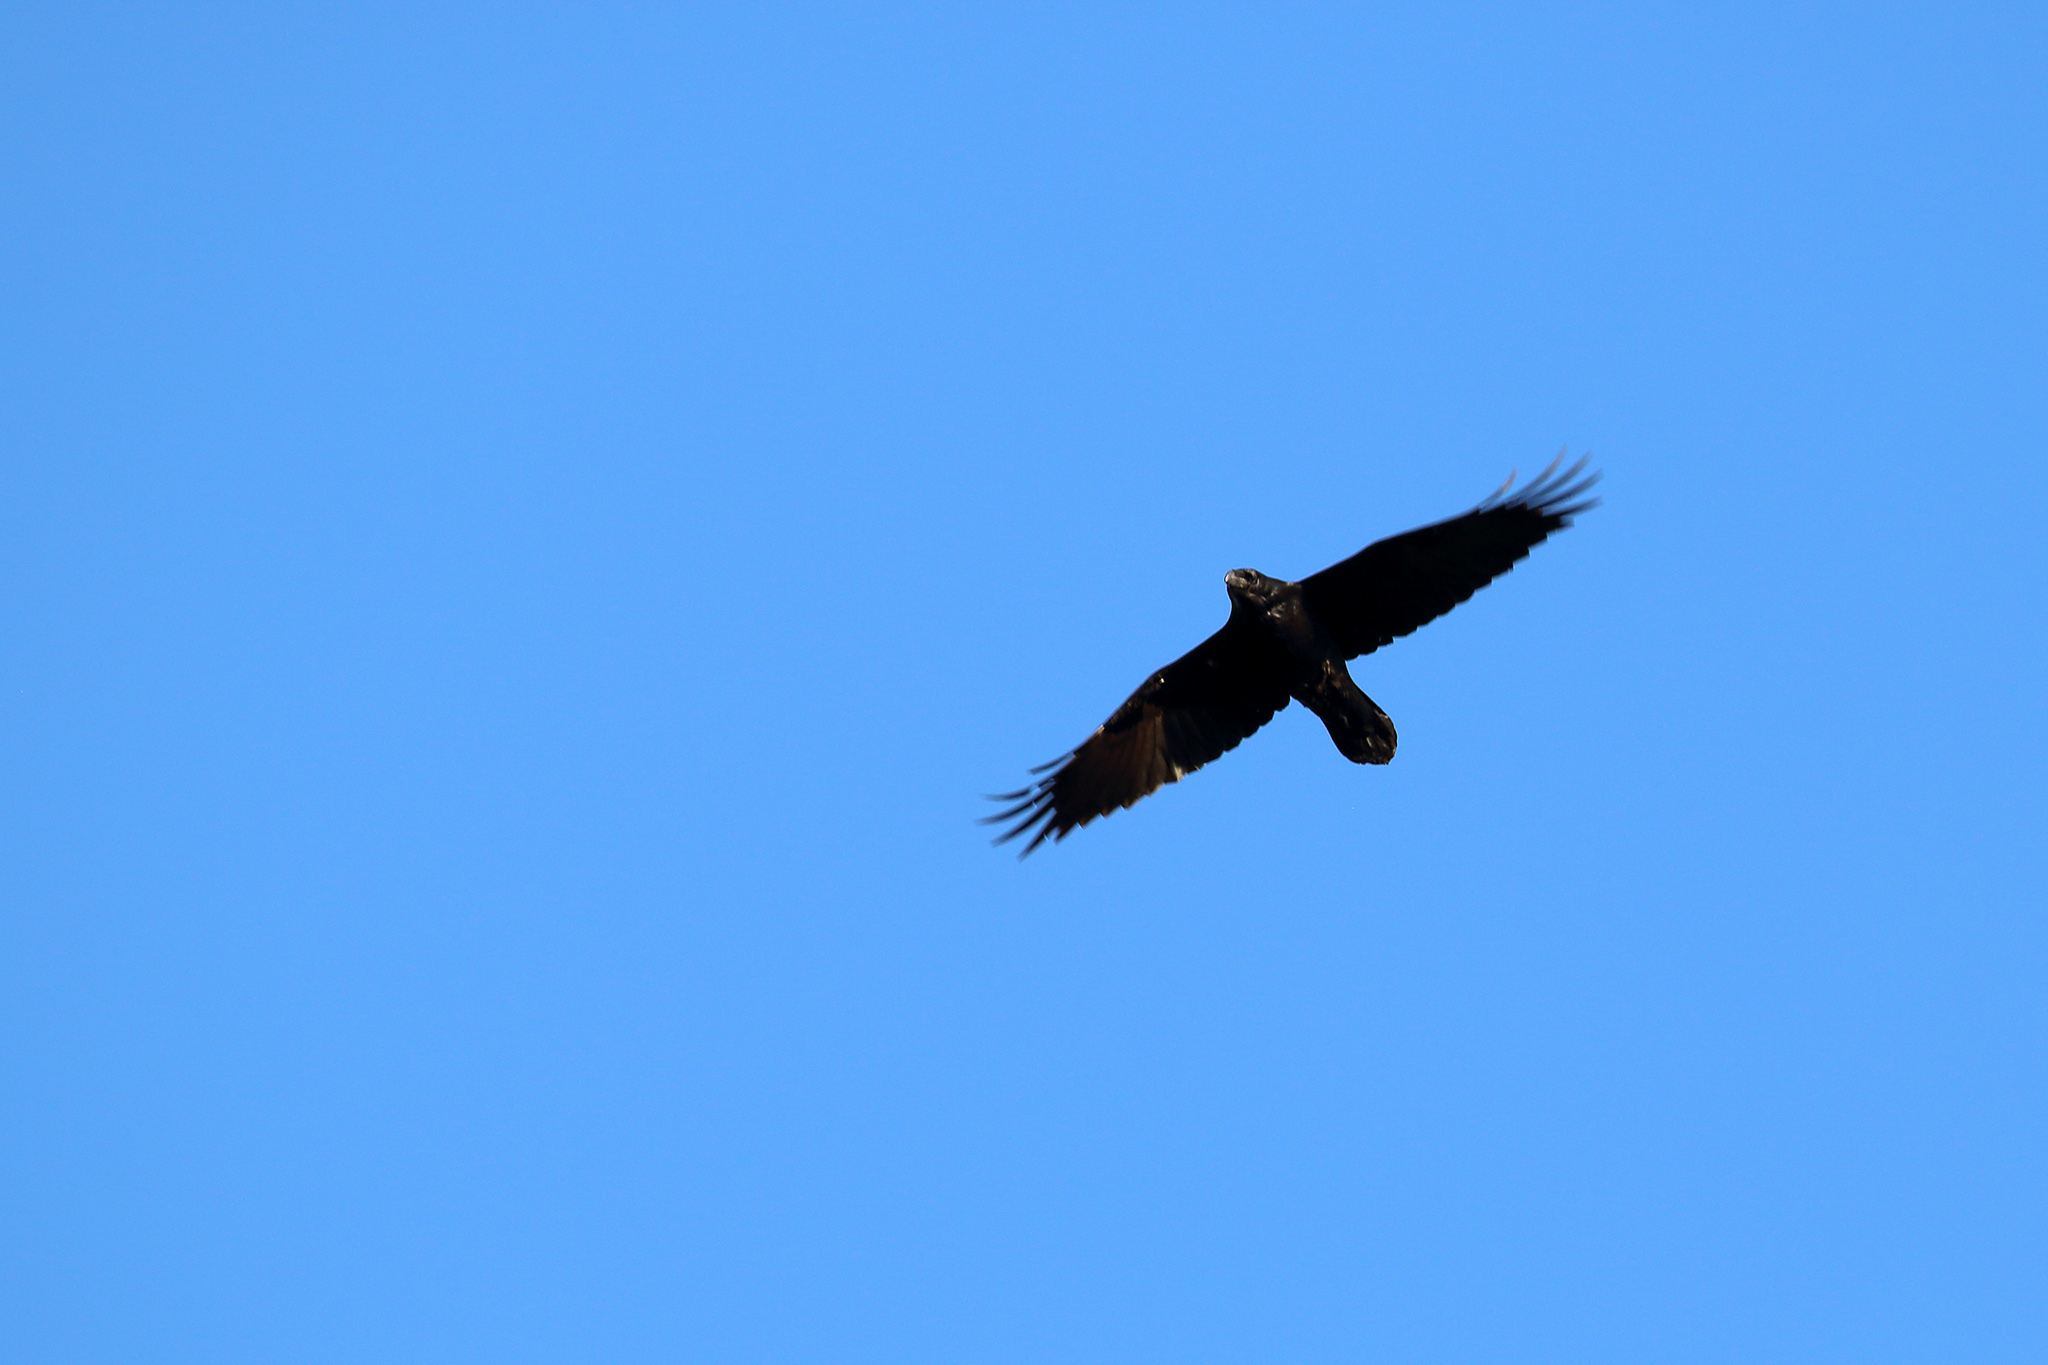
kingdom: Animalia
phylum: Chordata
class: Aves
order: Passeriformes
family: Corvidae
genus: Corvus
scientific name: Corvus corax
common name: Common raven
